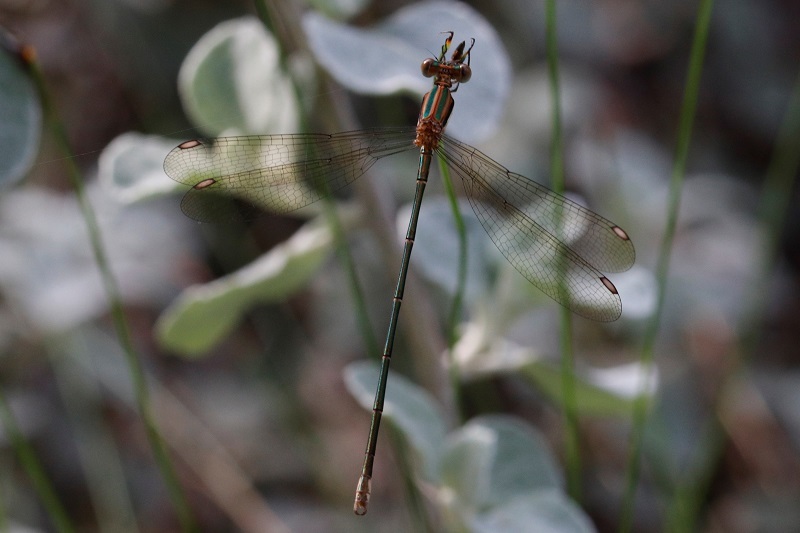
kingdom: Animalia
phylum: Arthropoda
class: Insecta
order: Odonata
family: Lestidae
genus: Lestes
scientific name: Lestes virgatus
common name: Smoky spreadwing
